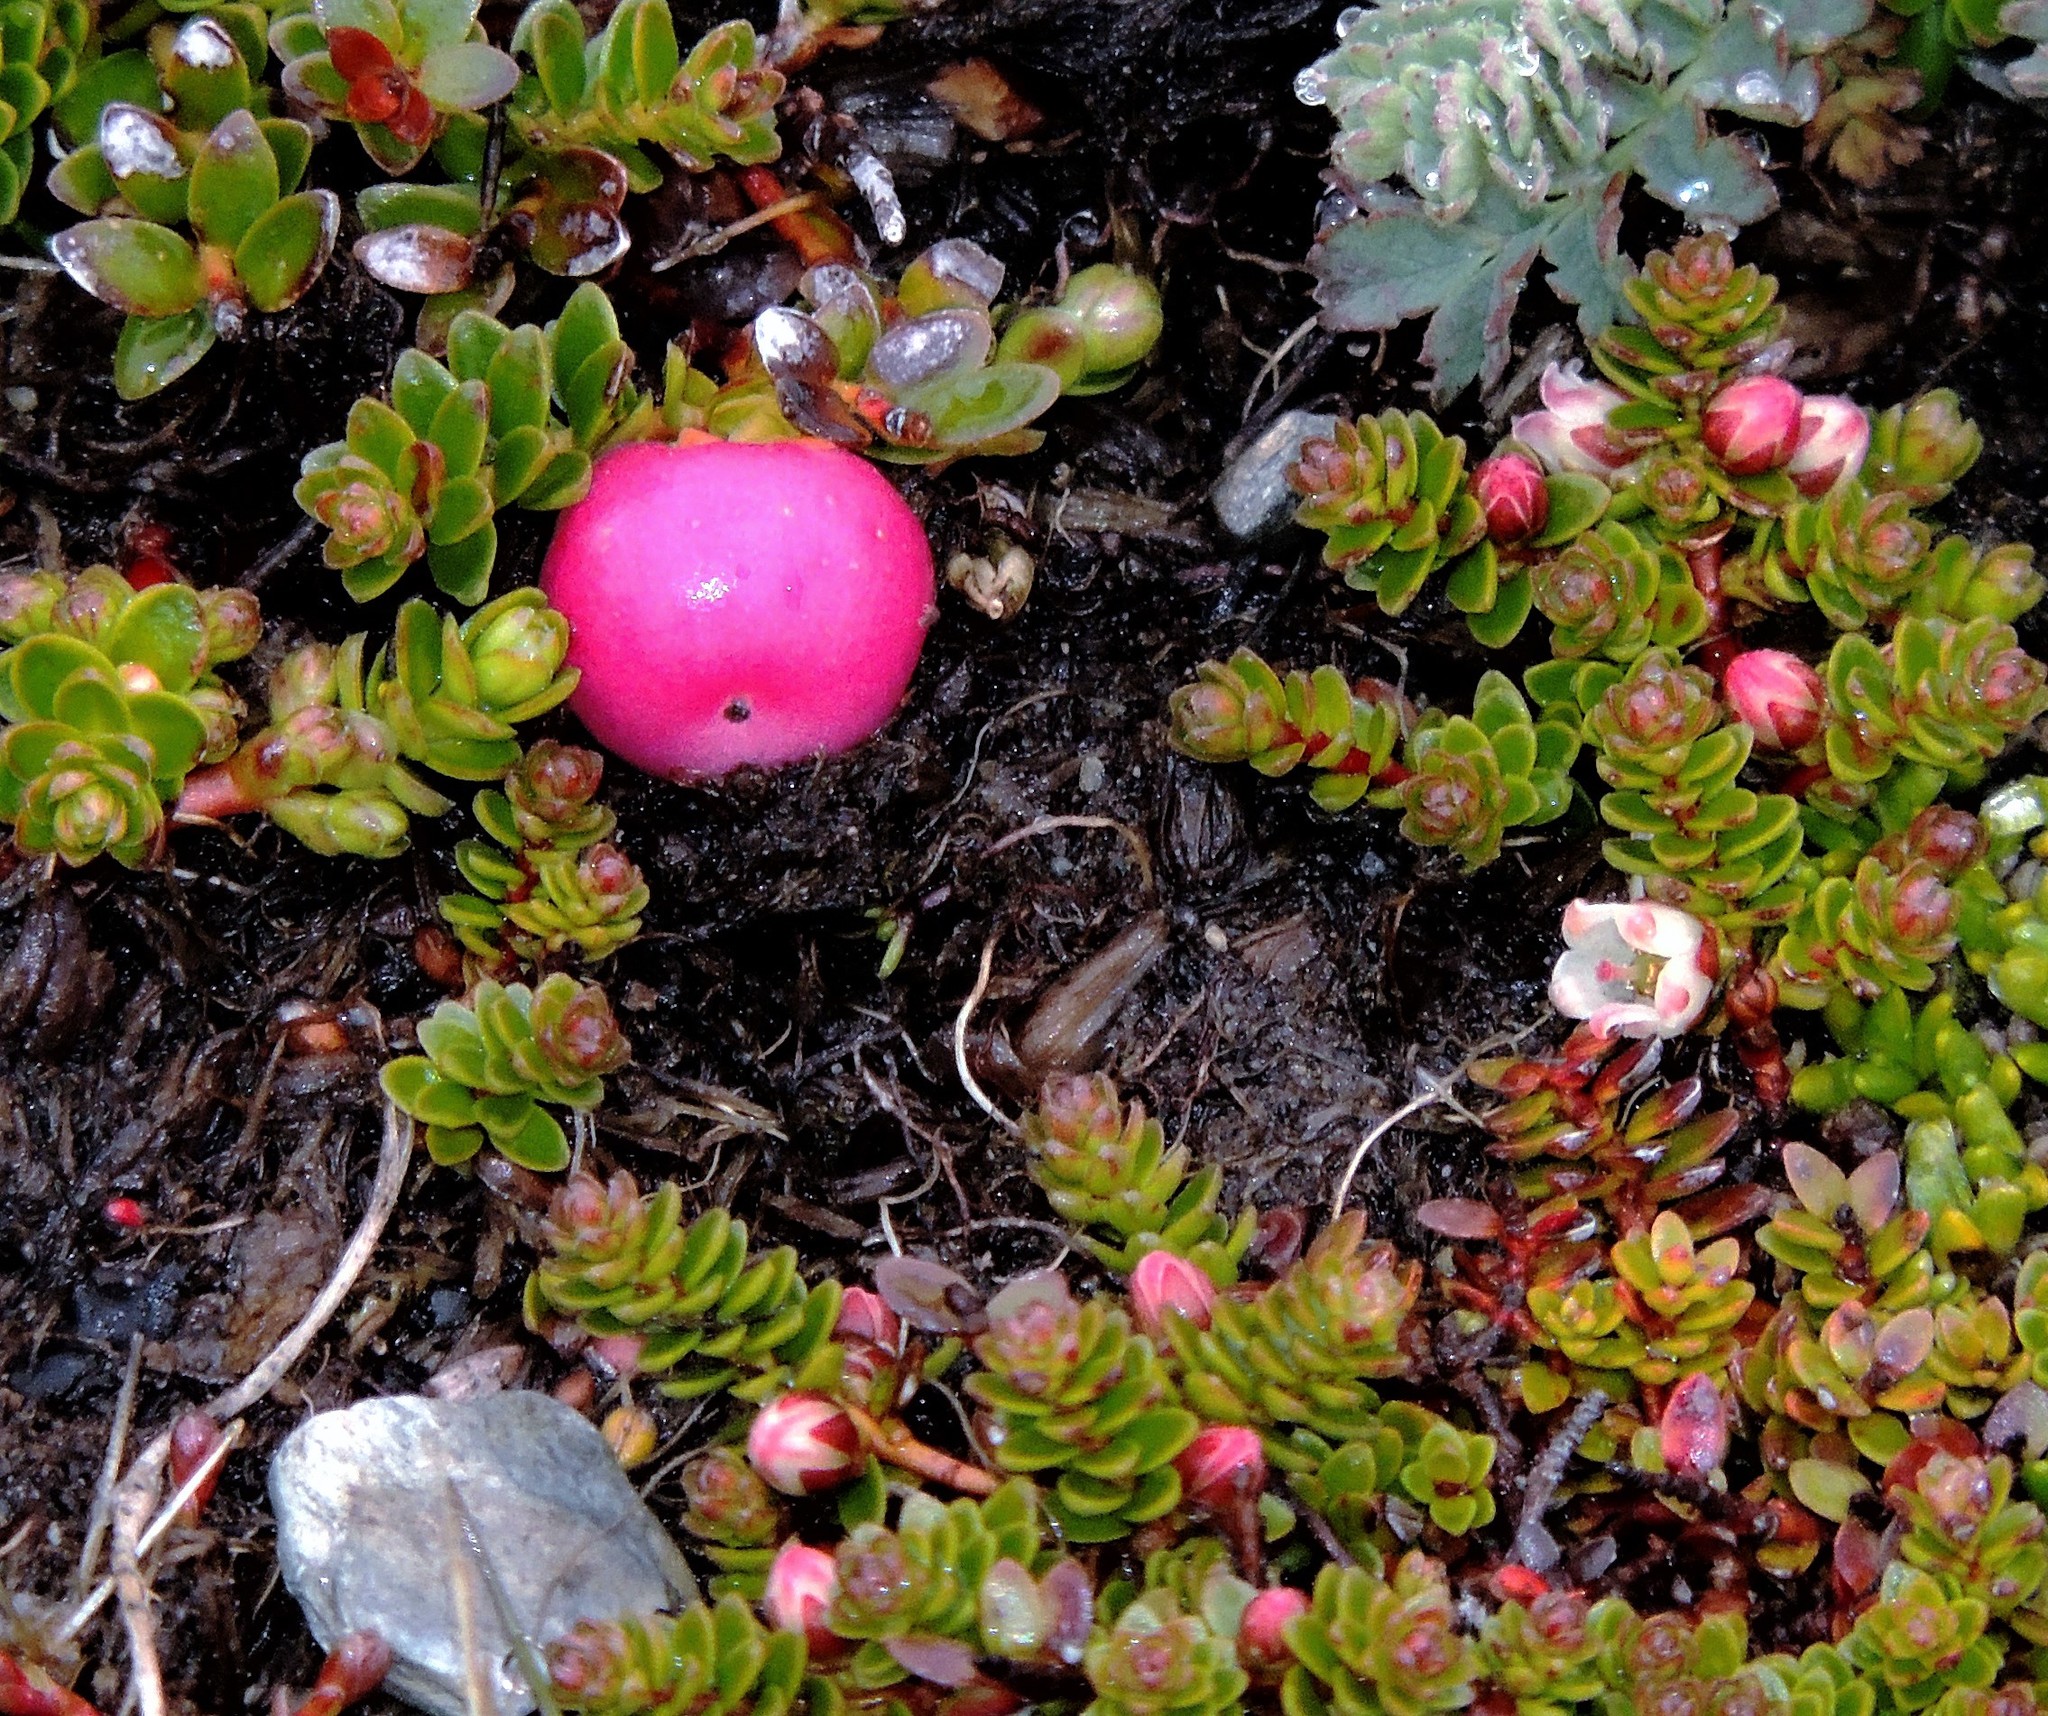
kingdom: Plantae
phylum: Tracheophyta
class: Magnoliopsida
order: Ericales
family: Ericaceae
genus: Gaultheria
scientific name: Gaultheria pumila
